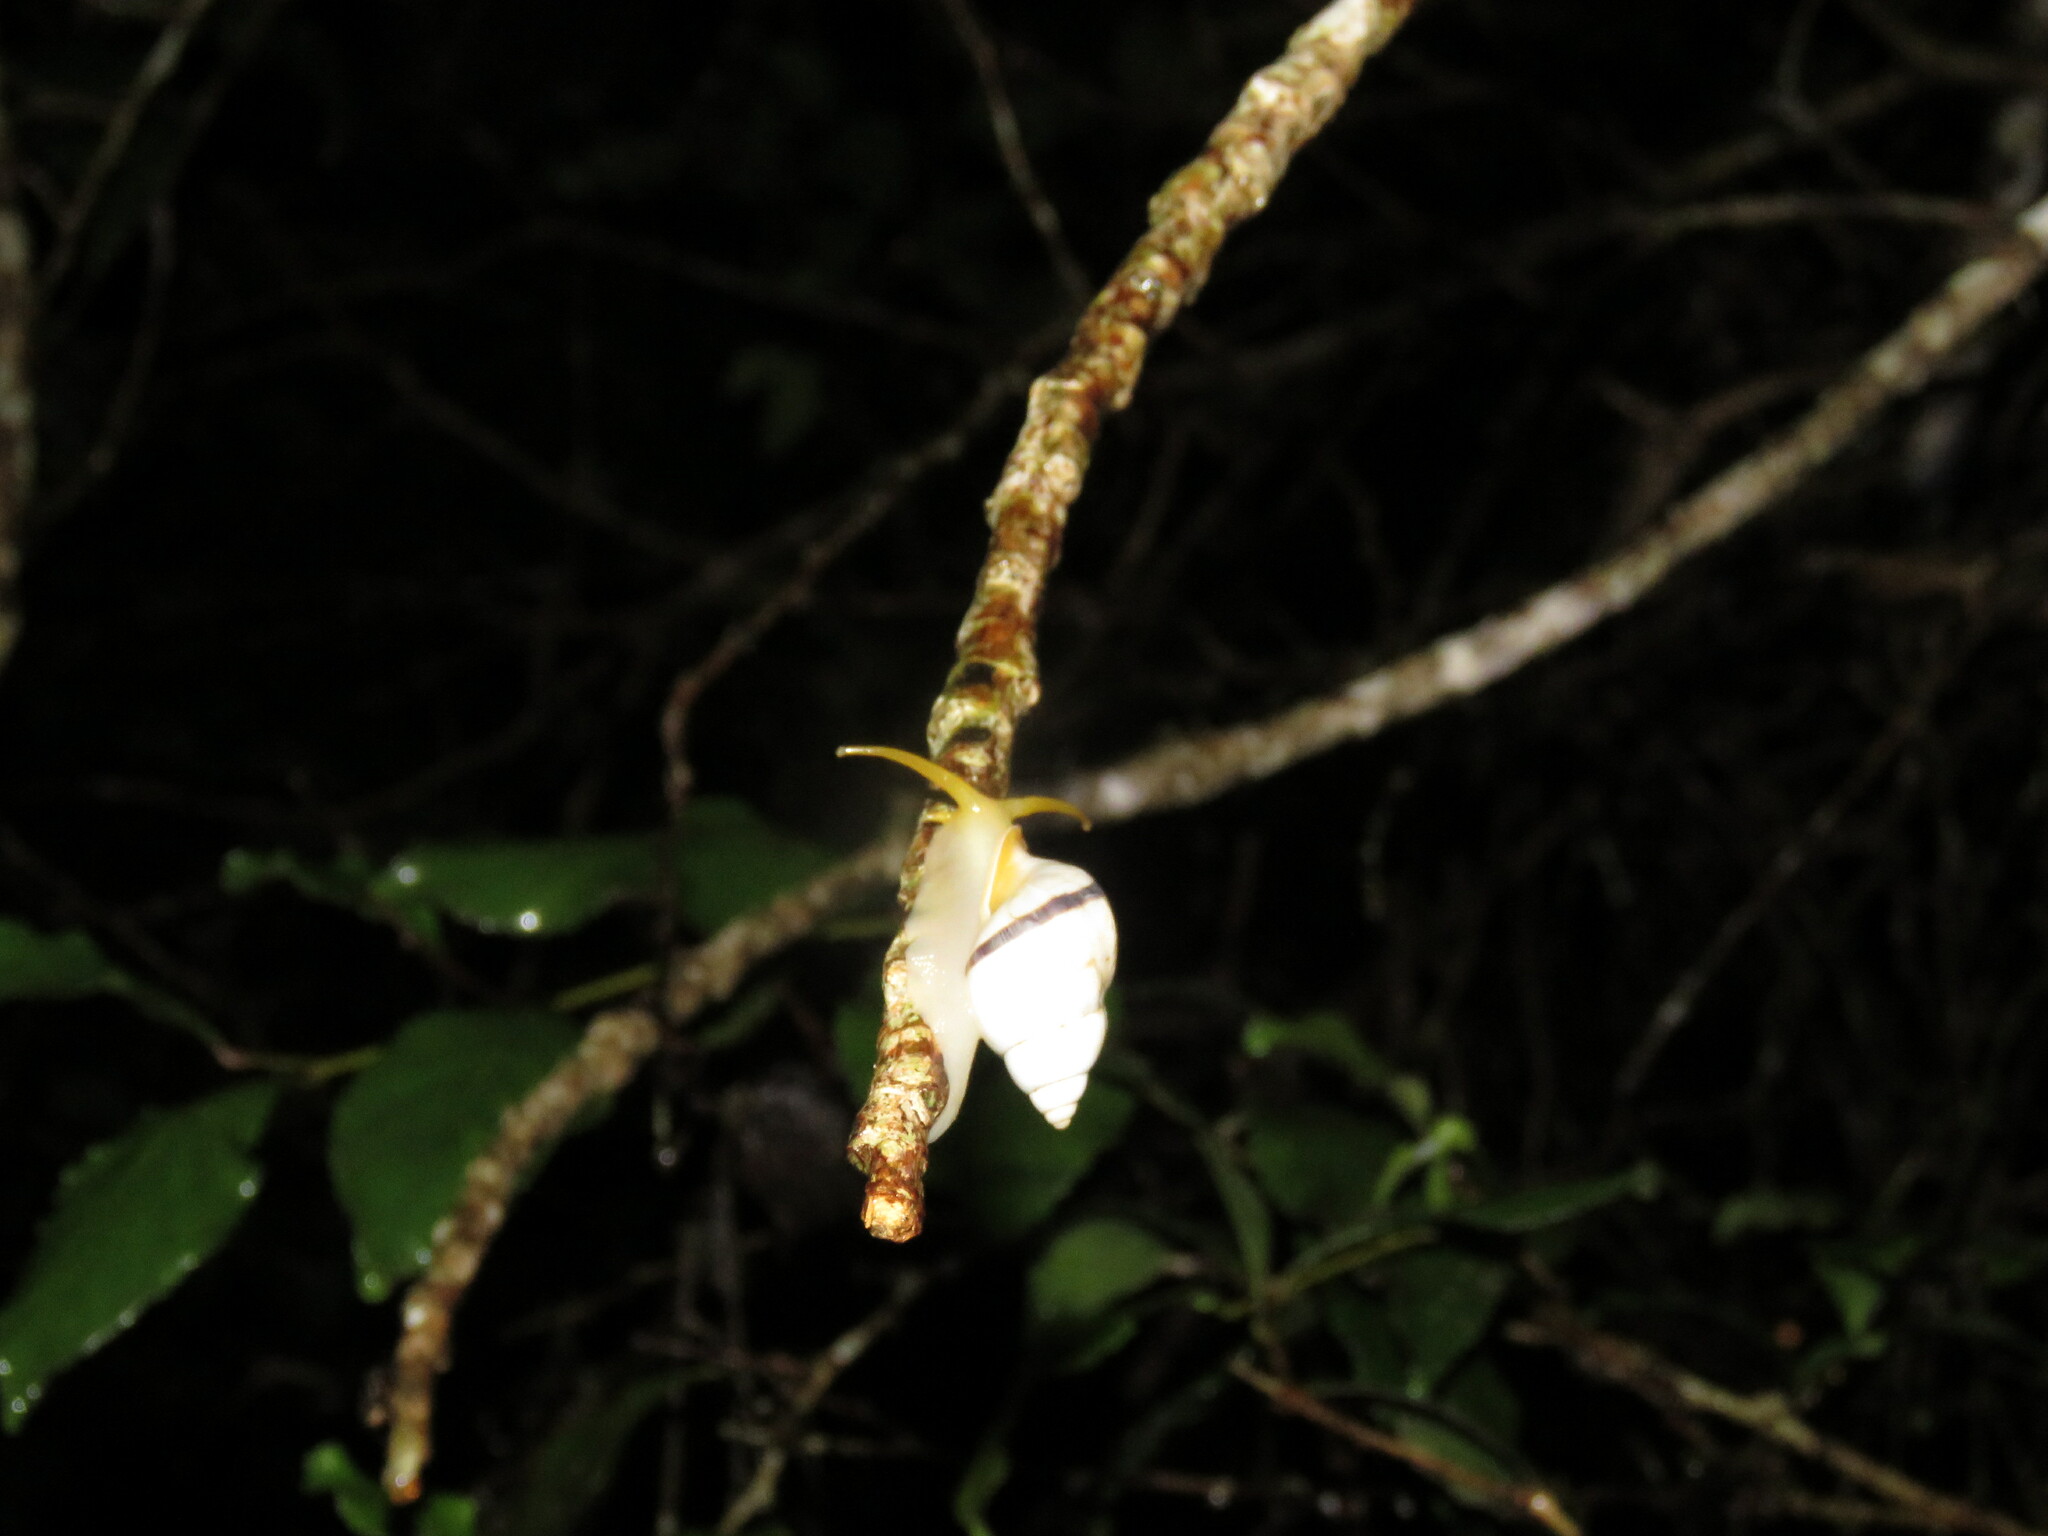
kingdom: Animalia
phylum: Mollusca
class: Gastropoda
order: Stylommatophora
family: Bulimulidae
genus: Drymaeus
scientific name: Drymaeus branneri
